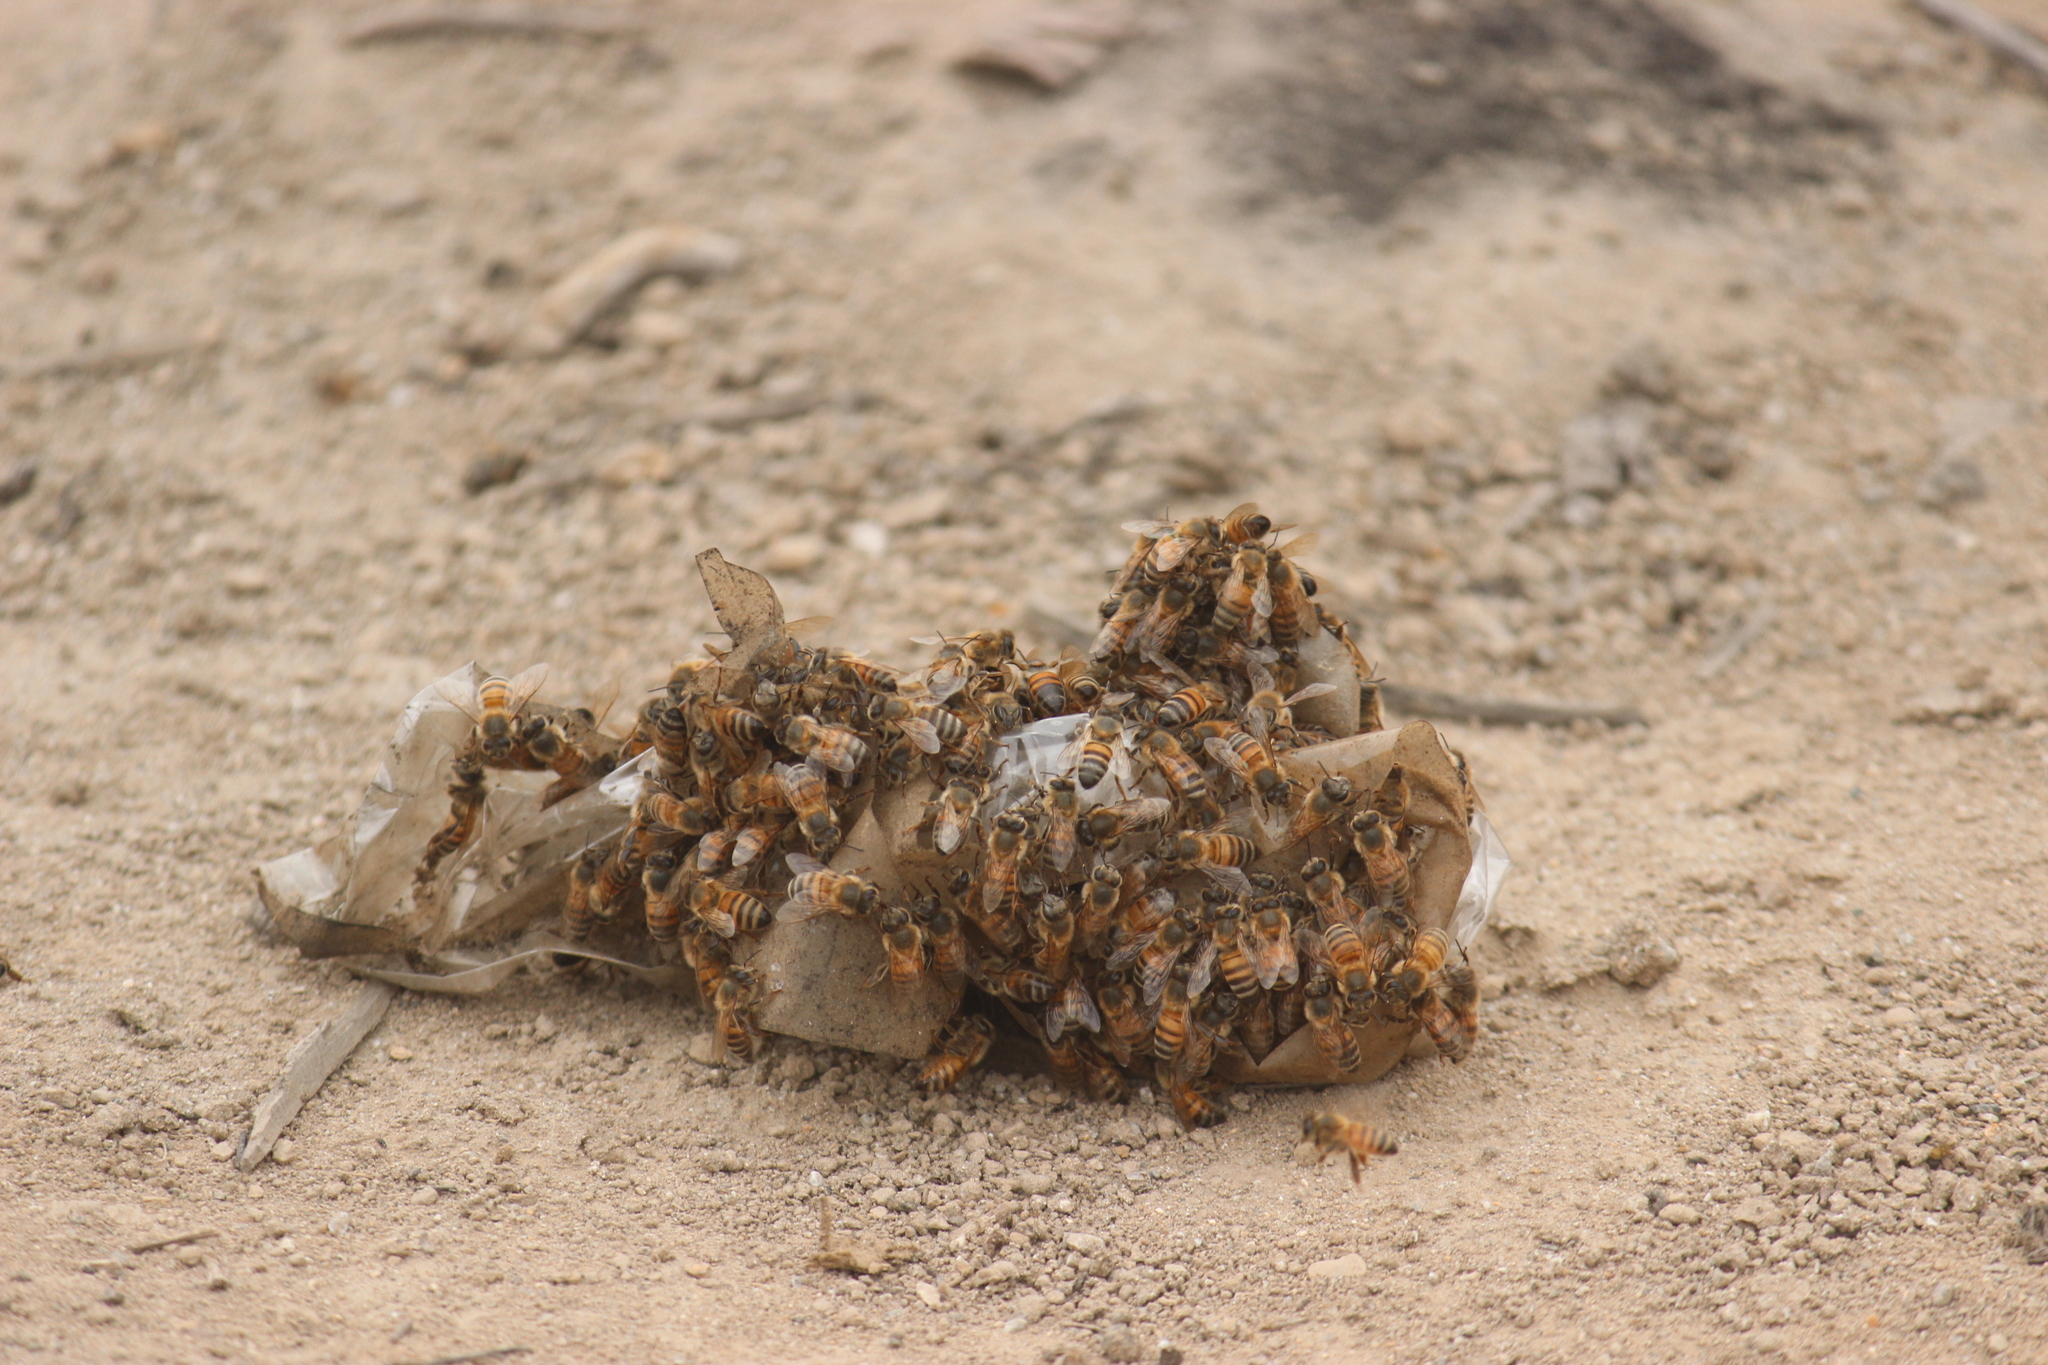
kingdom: Animalia
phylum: Arthropoda
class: Insecta
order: Hymenoptera
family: Apidae
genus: Apis
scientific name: Apis mellifera
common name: Honey bee
